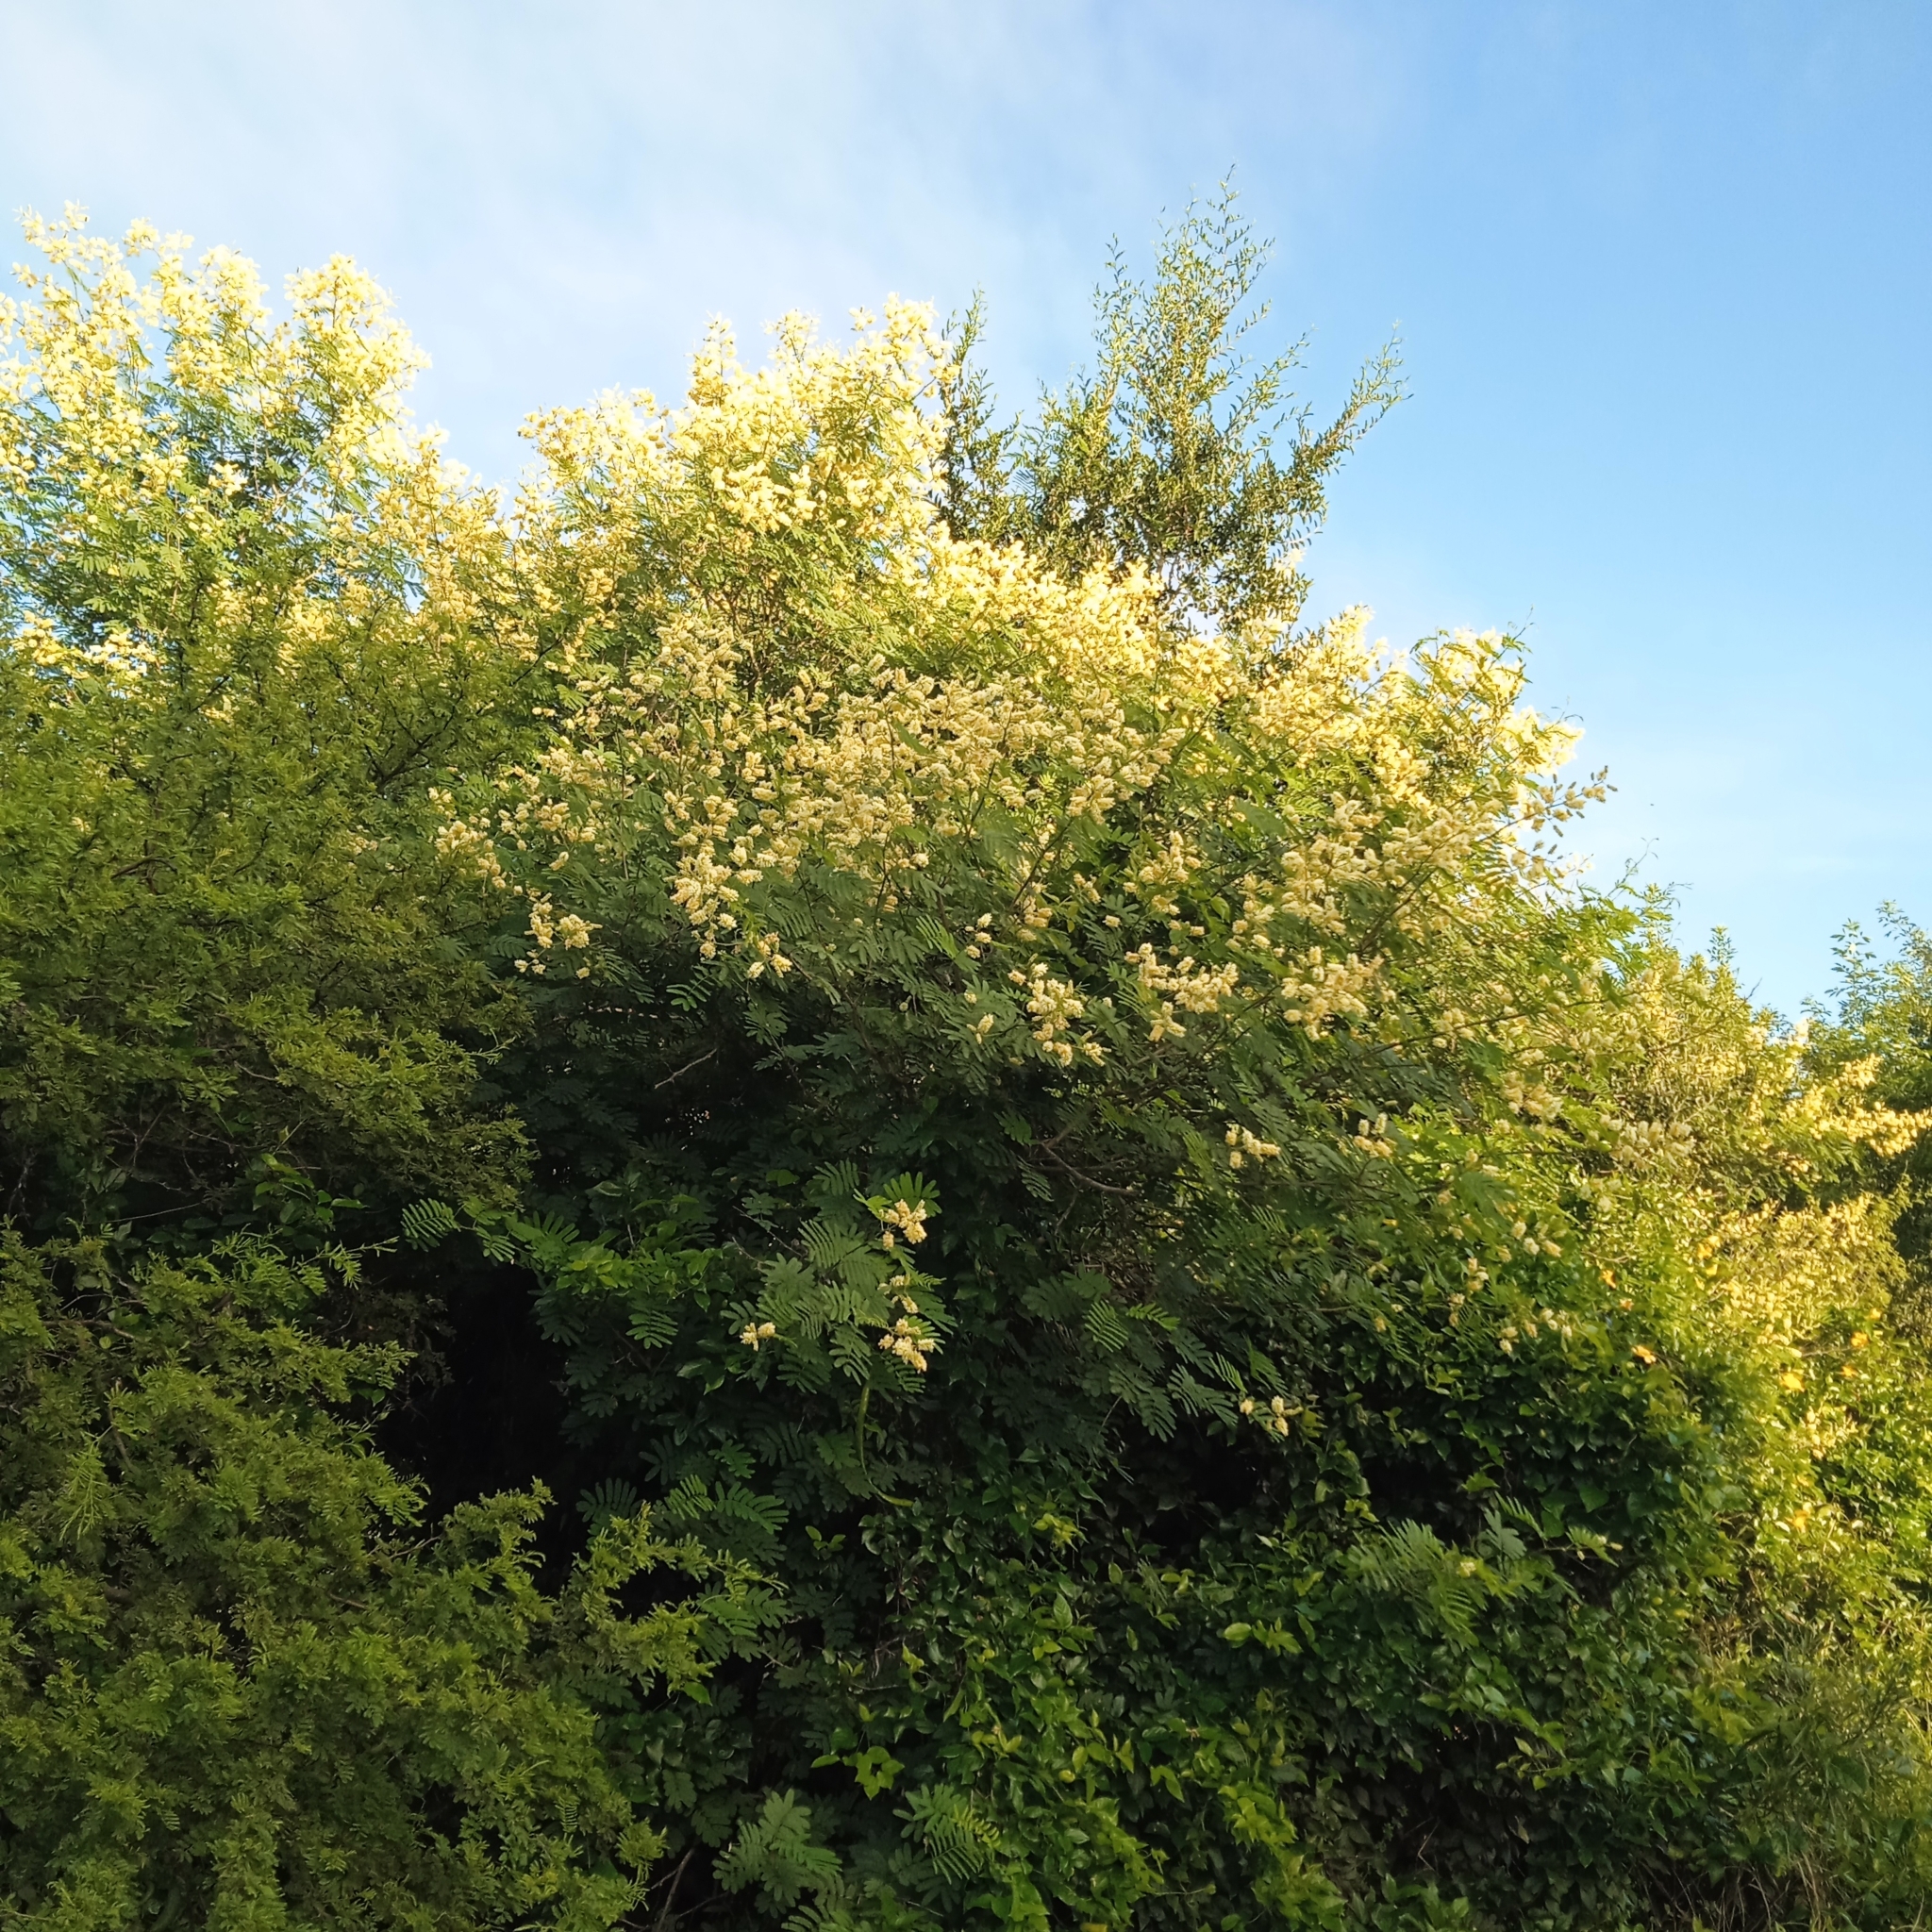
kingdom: Plantae
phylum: Tracheophyta
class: Magnoliopsida
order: Fabales
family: Fabaceae
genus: Senegalia
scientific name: Senegalia bonariensis
